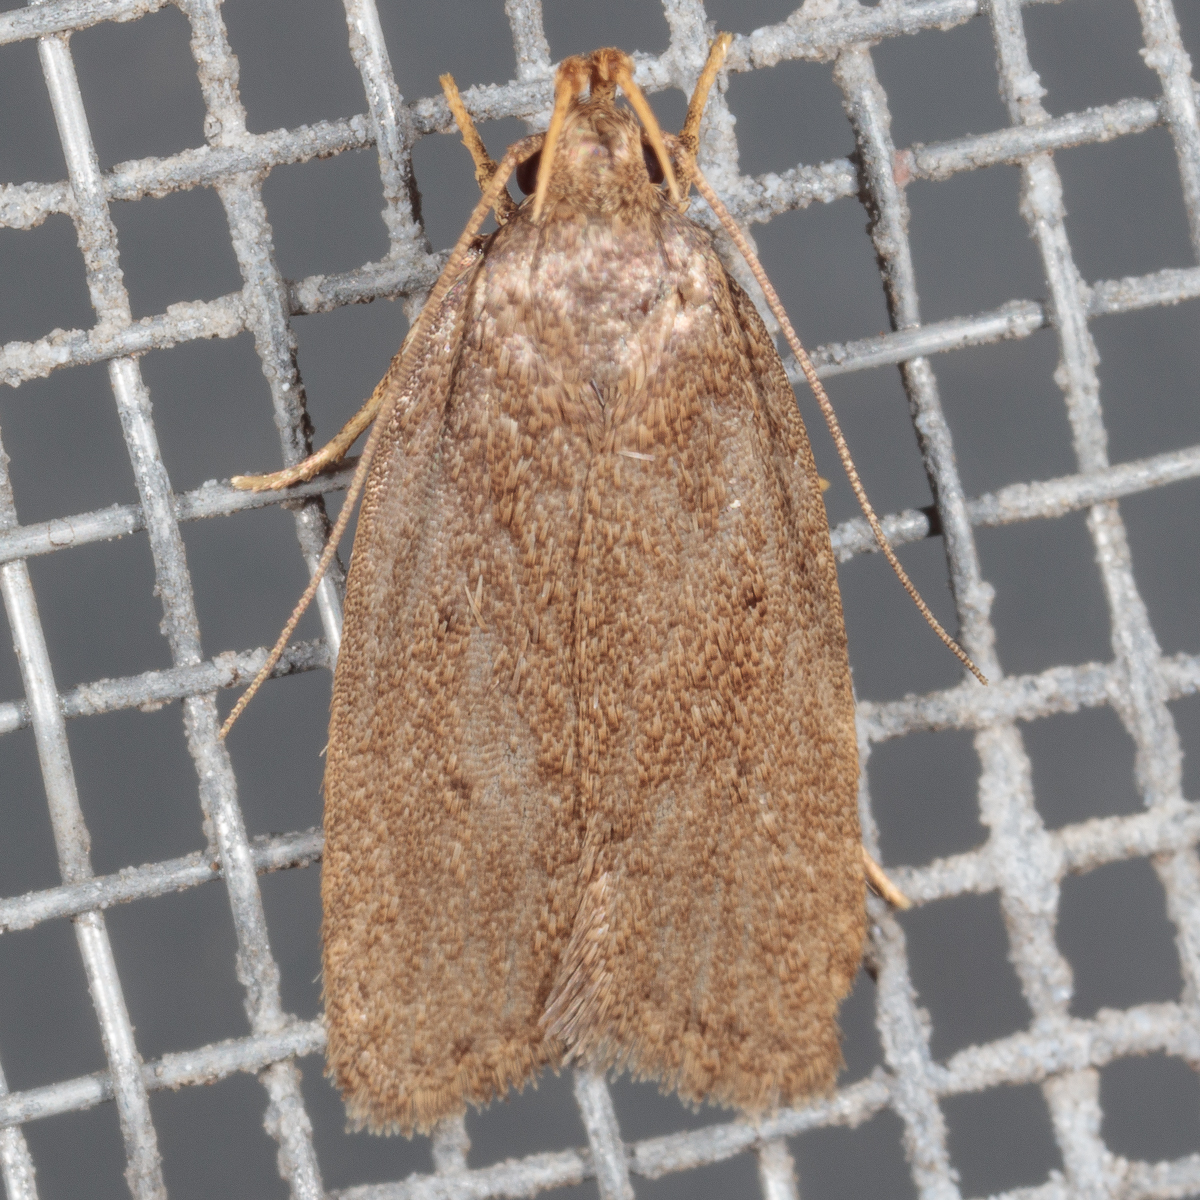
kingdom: Animalia
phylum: Arthropoda
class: Insecta
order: Lepidoptera
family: Autostichidae
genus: Autosticha
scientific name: Autosticha kyotensis
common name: Kyoto moth
